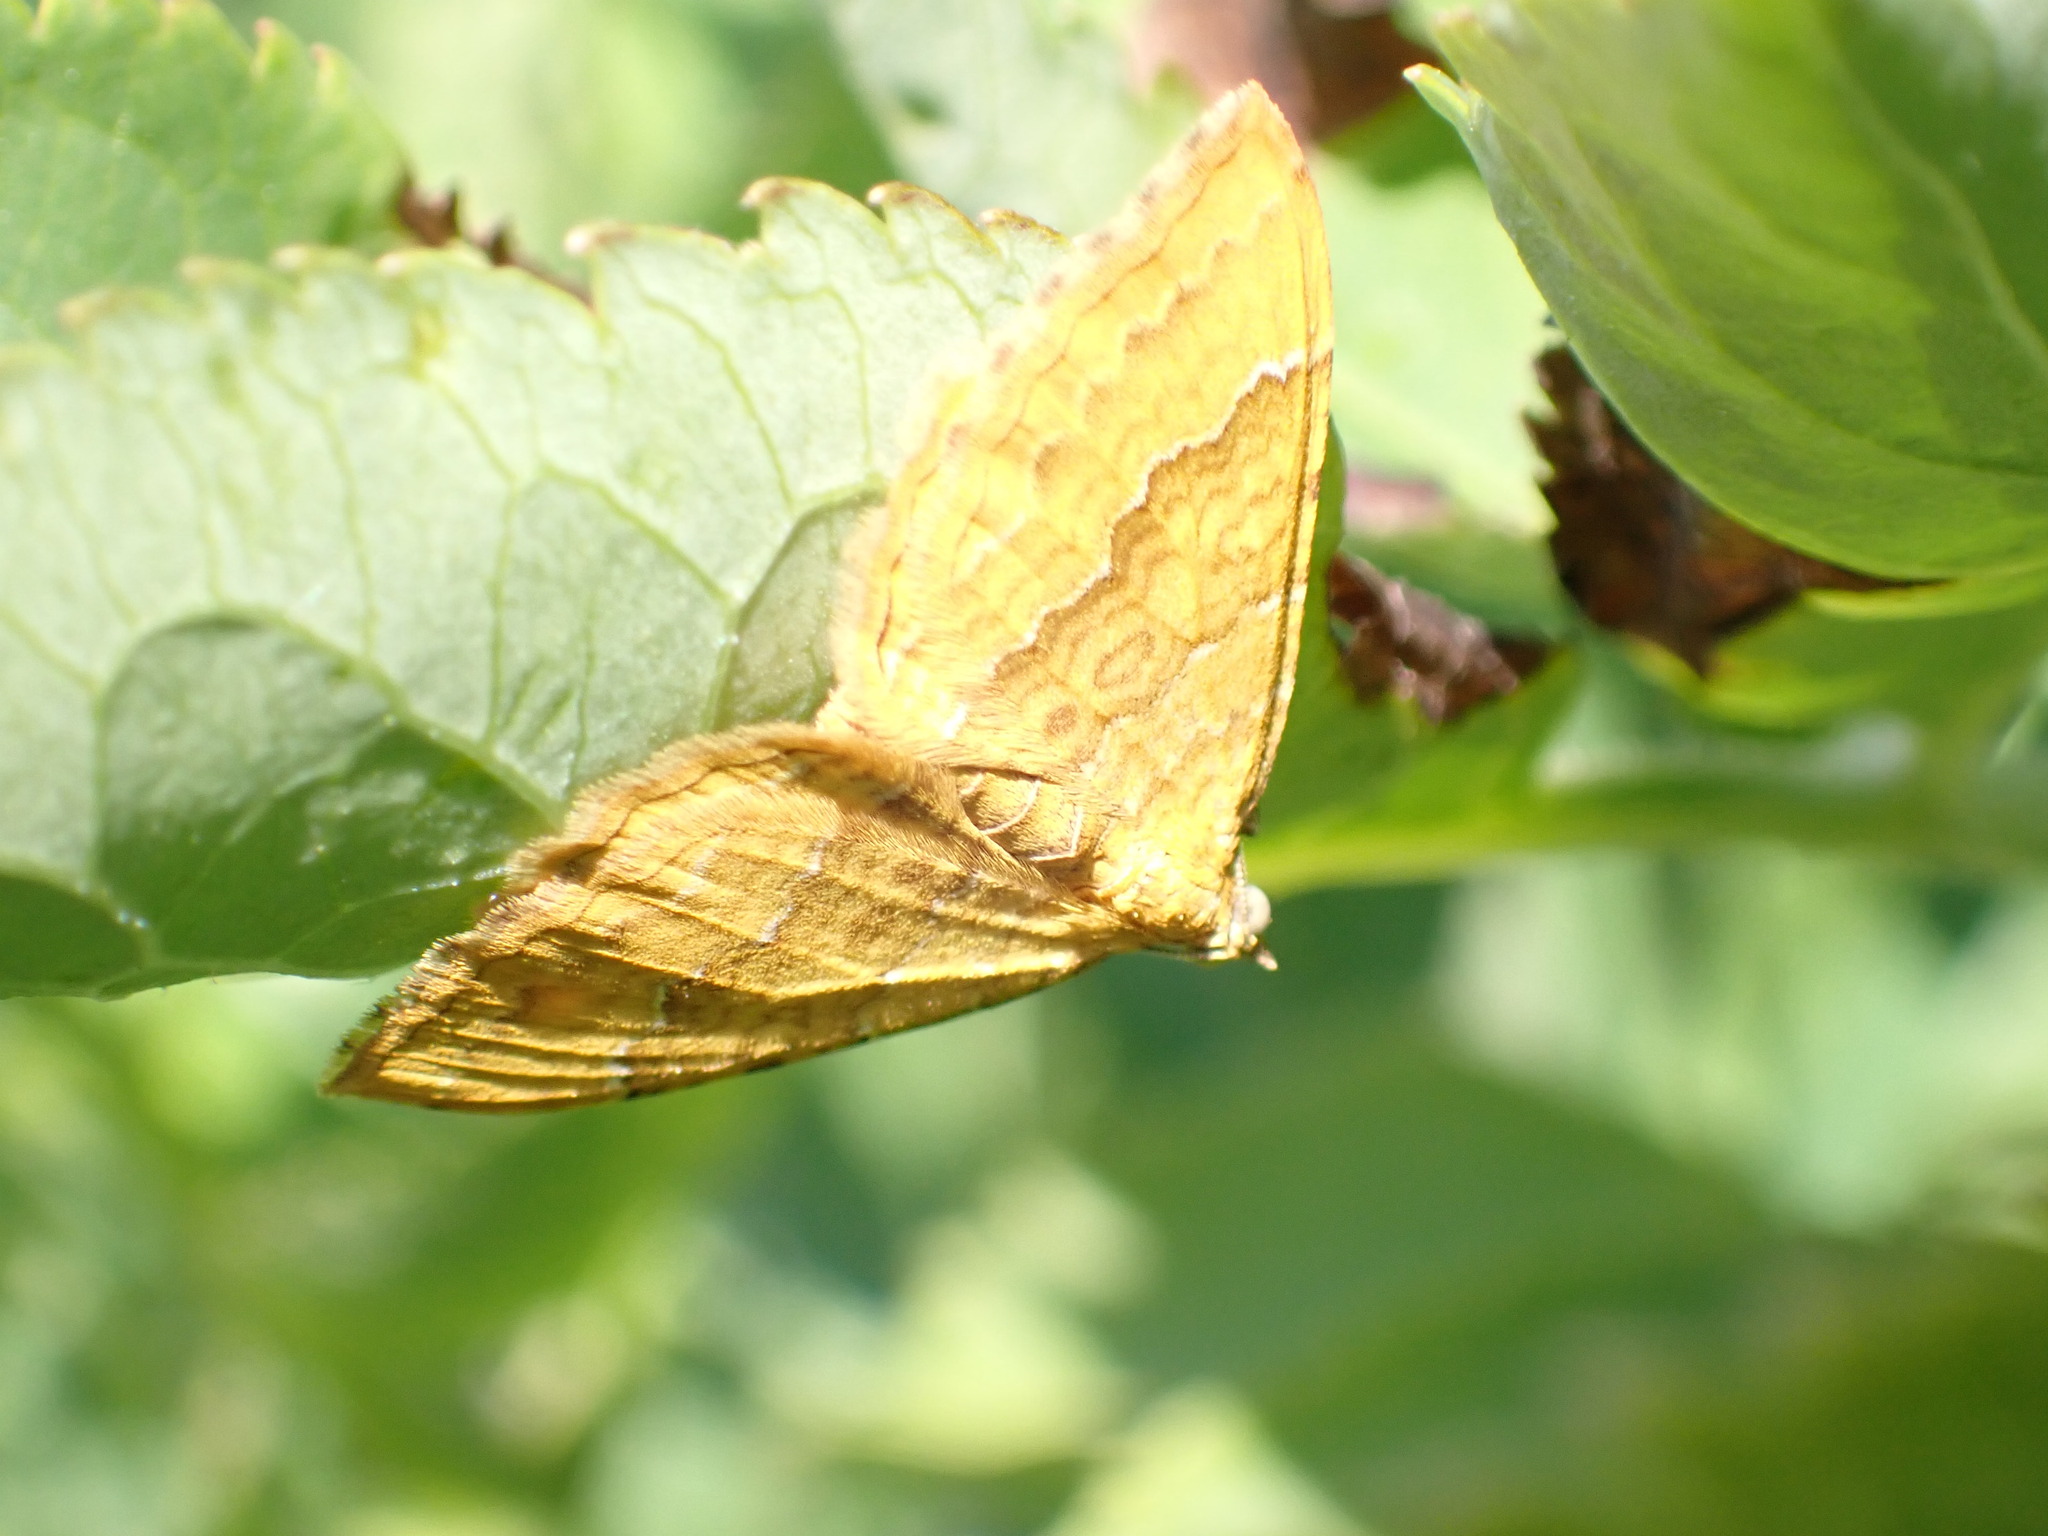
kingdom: Animalia
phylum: Arthropoda
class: Insecta
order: Lepidoptera
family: Geometridae
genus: Camptogramma
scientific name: Camptogramma bilineata
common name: Yellow shell
